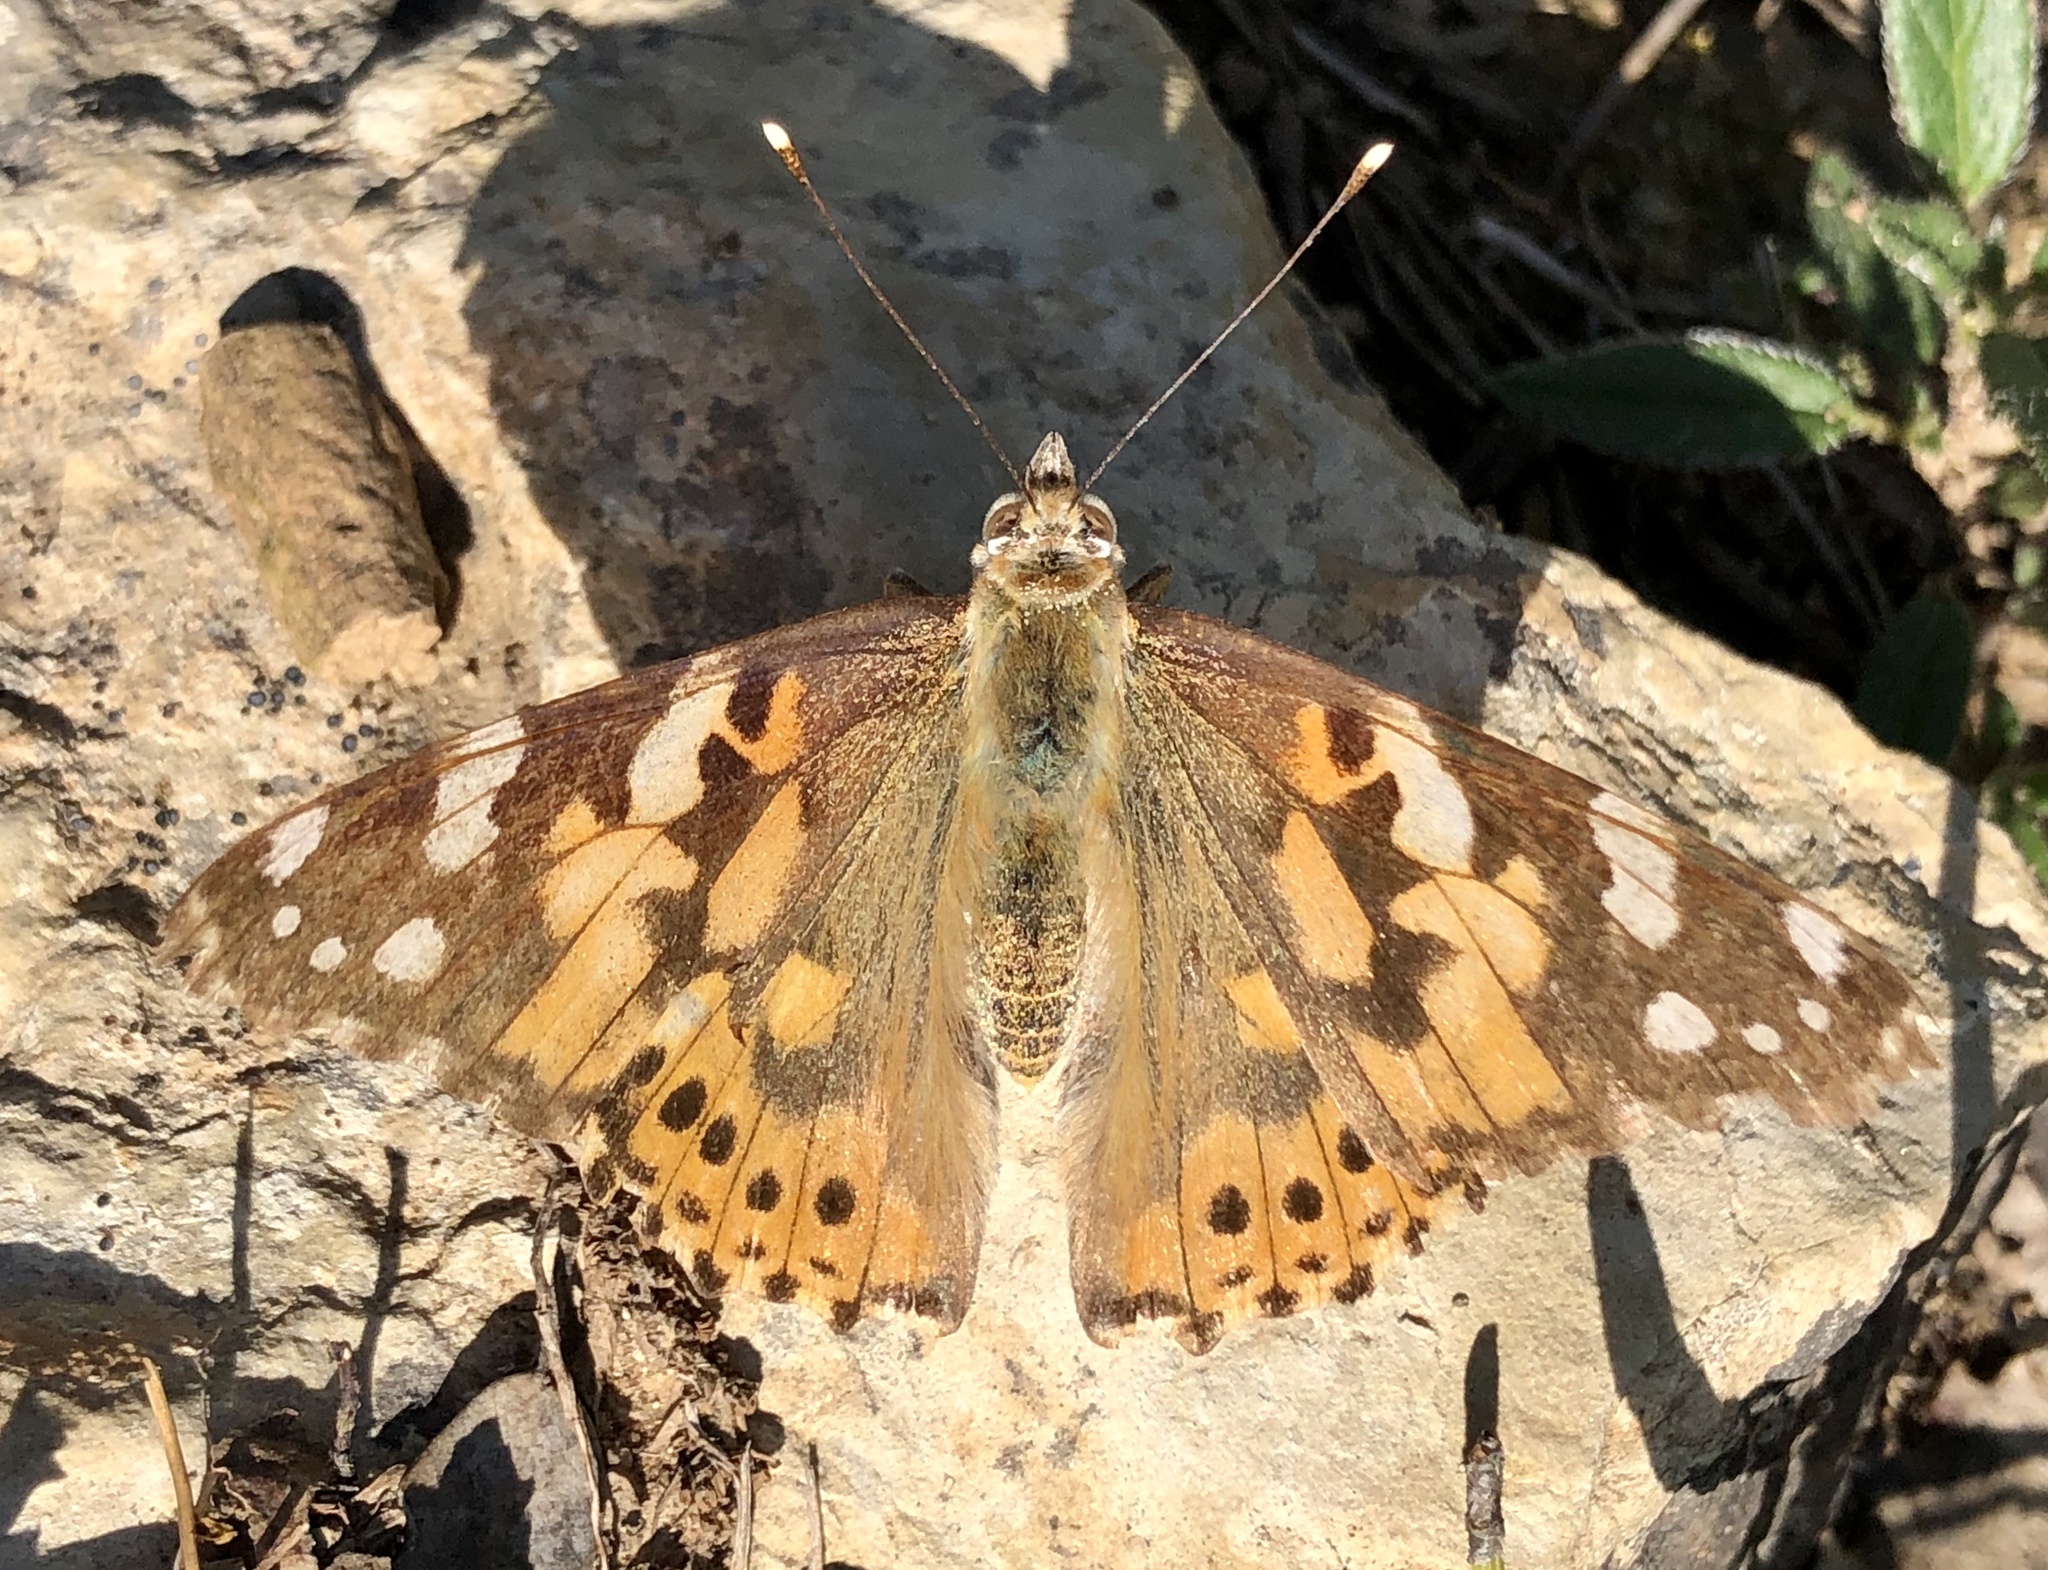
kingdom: Animalia
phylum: Arthropoda
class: Insecta
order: Lepidoptera
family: Nymphalidae
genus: Vanessa
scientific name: Vanessa cardui
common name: Painted lady
